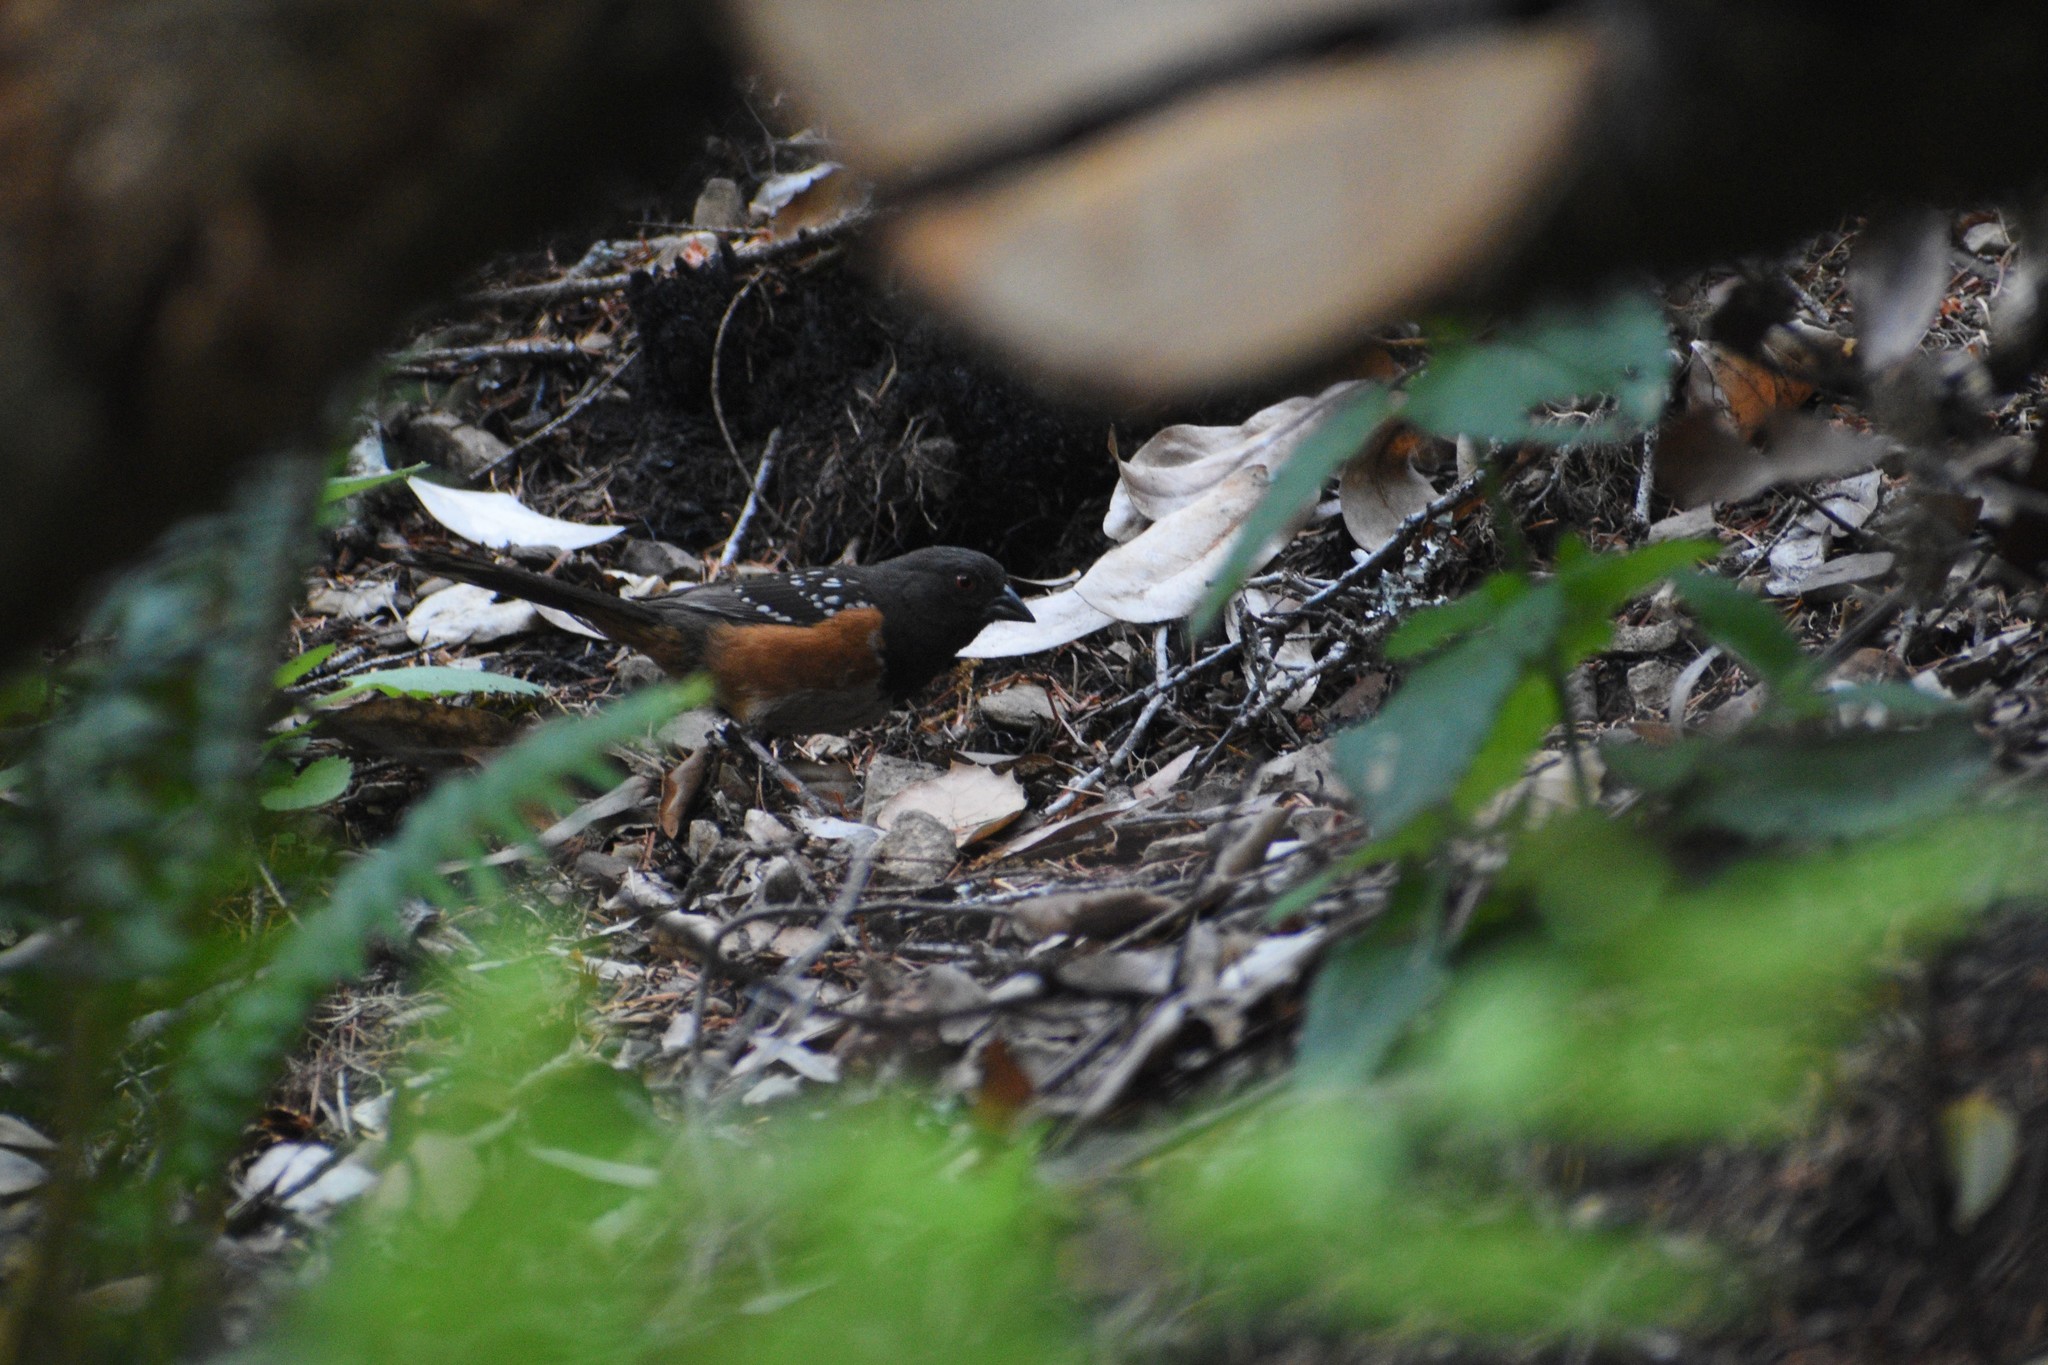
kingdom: Animalia
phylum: Chordata
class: Aves
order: Passeriformes
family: Passerellidae
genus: Pipilo
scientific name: Pipilo maculatus
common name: Spotted towhee
